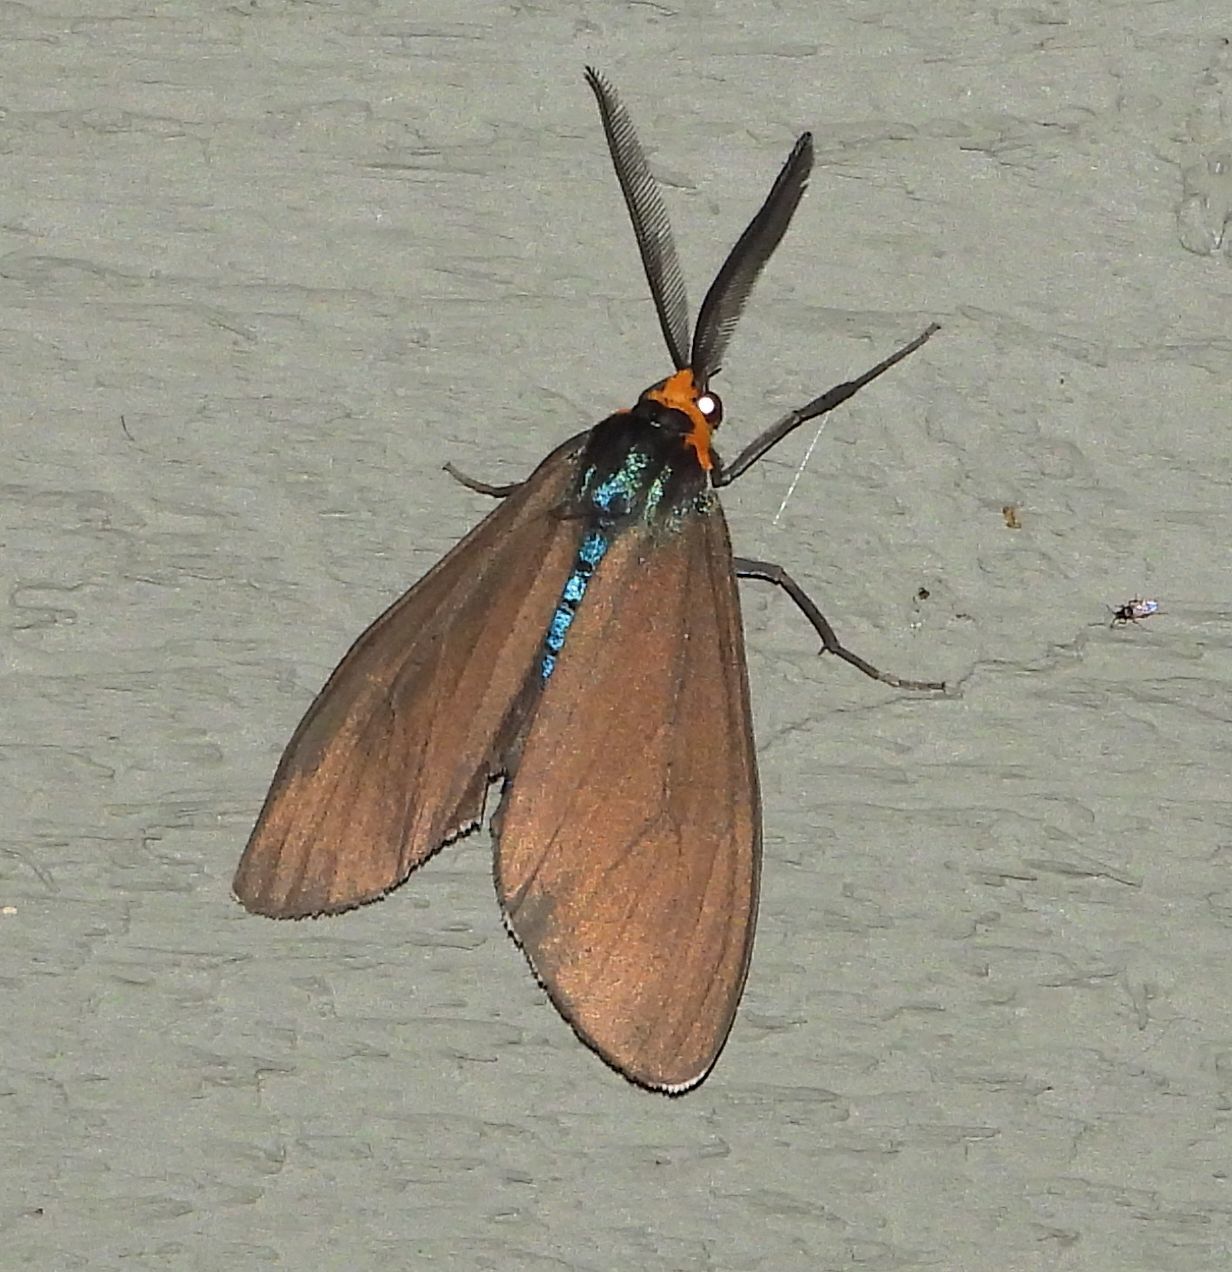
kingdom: Animalia
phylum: Arthropoda
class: Insecta
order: Lepidoptera
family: Erebidae
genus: Ctenucha
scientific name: Ctenucha virginica
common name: Virginia ctenucha moth
